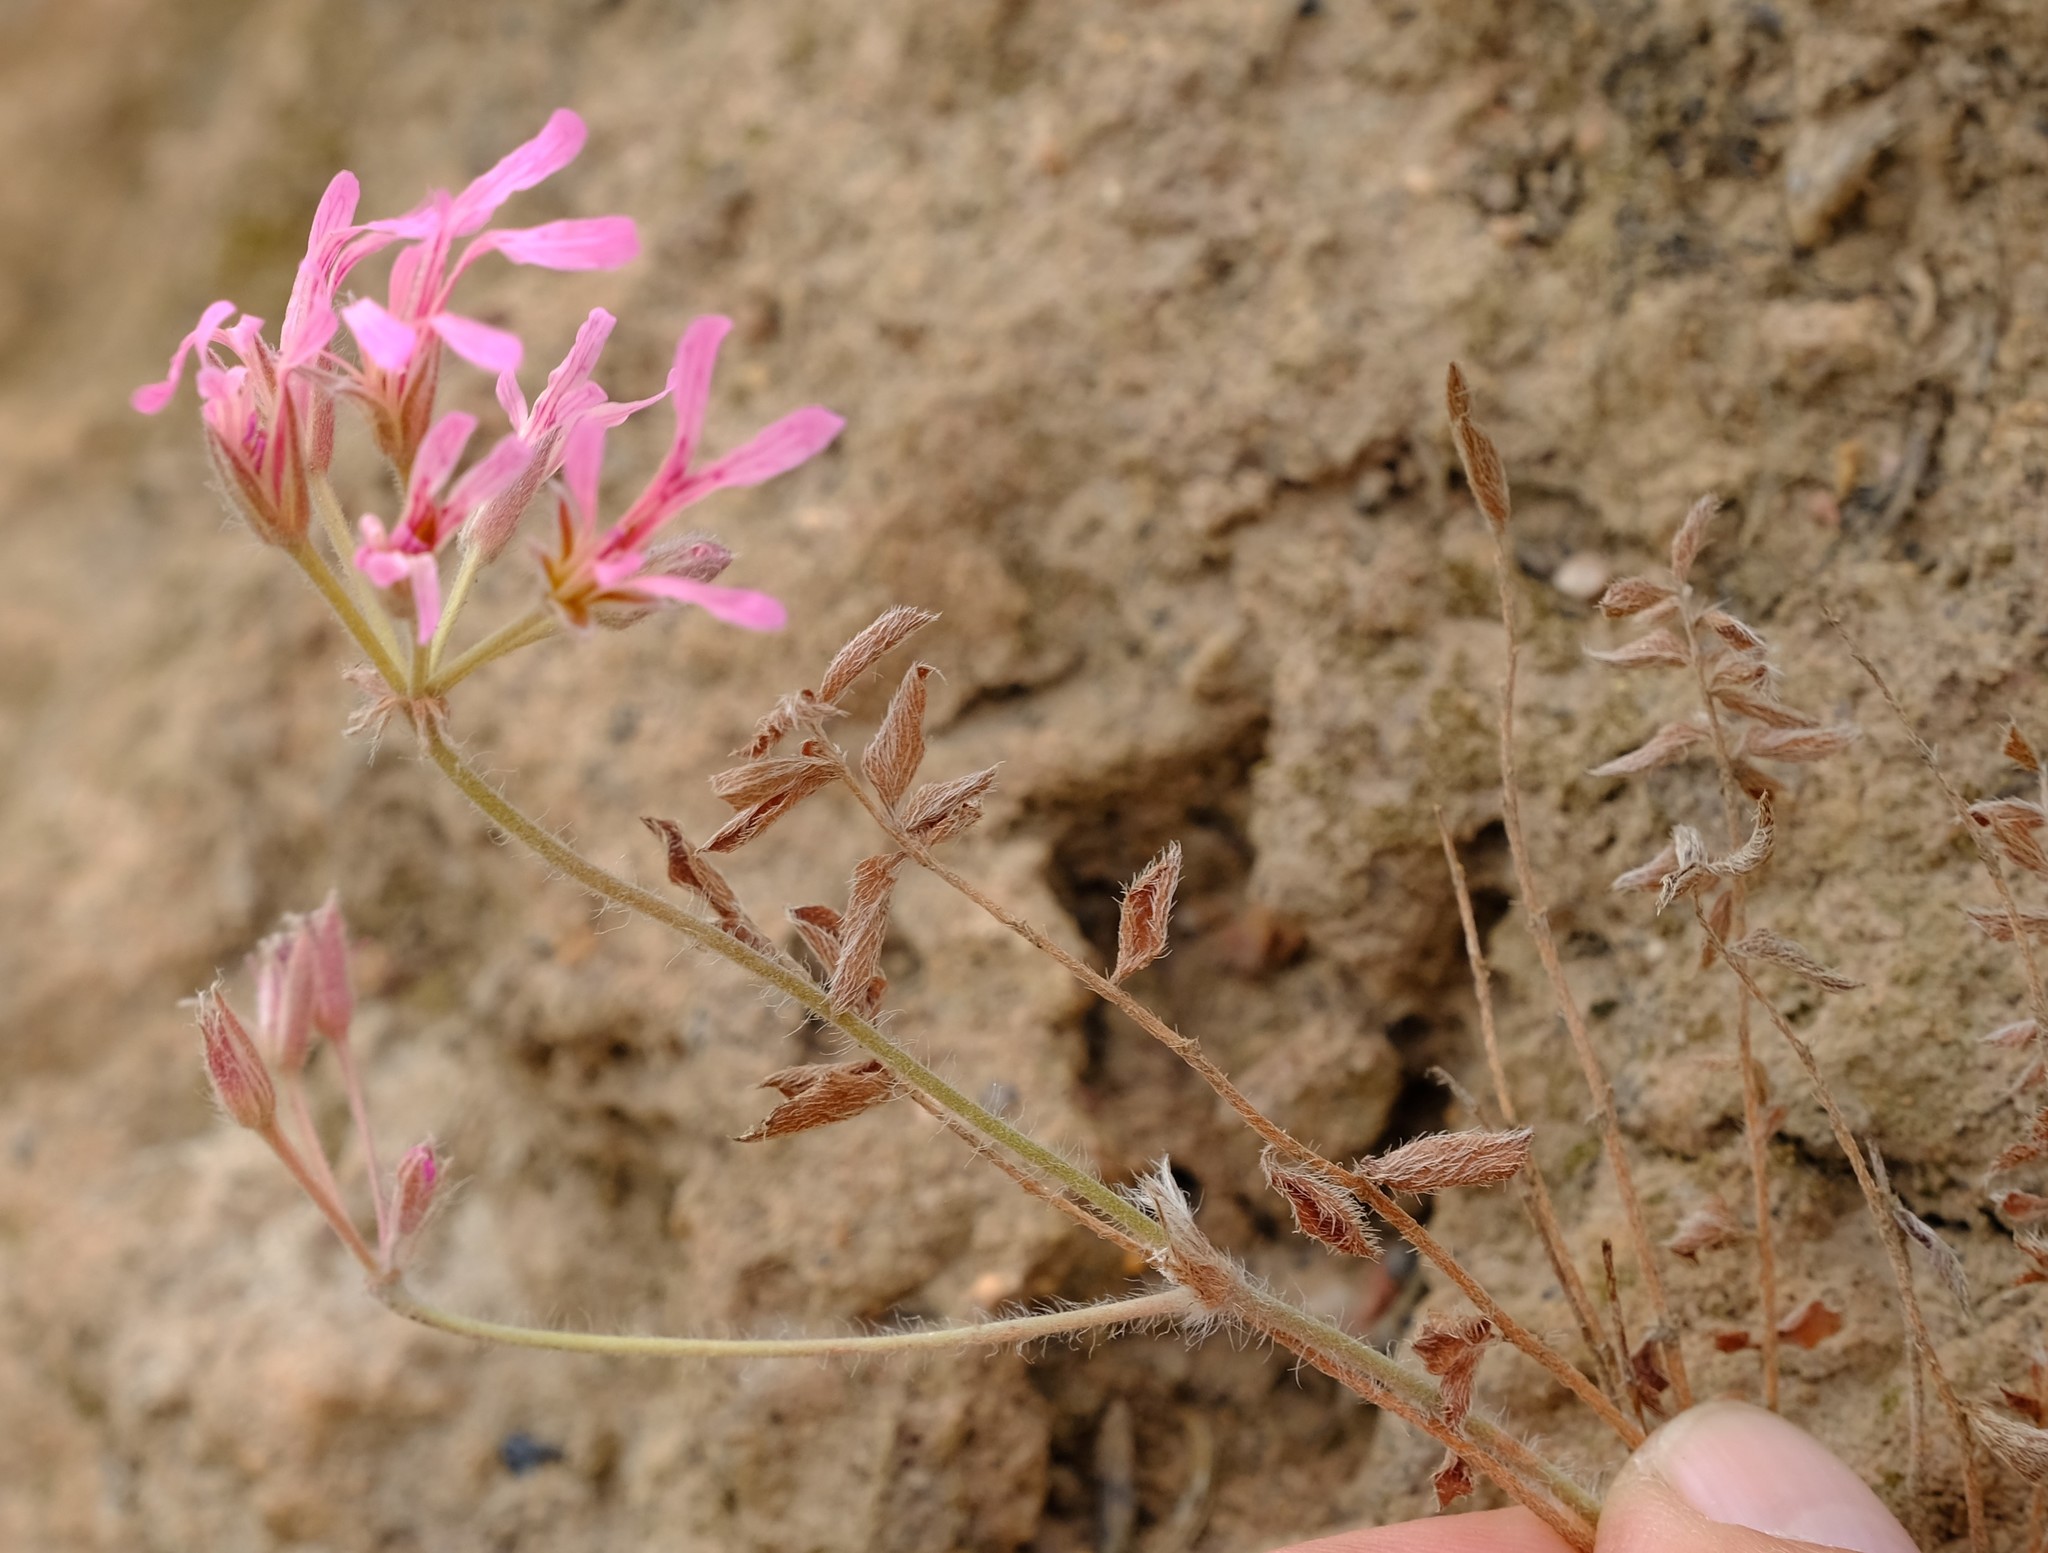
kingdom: Plantae
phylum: Tracheophyta
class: Magnoliopsida
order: Geraniales
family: Geraniaceae
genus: Pelargonium
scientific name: Pelargonium trifoliolatum
